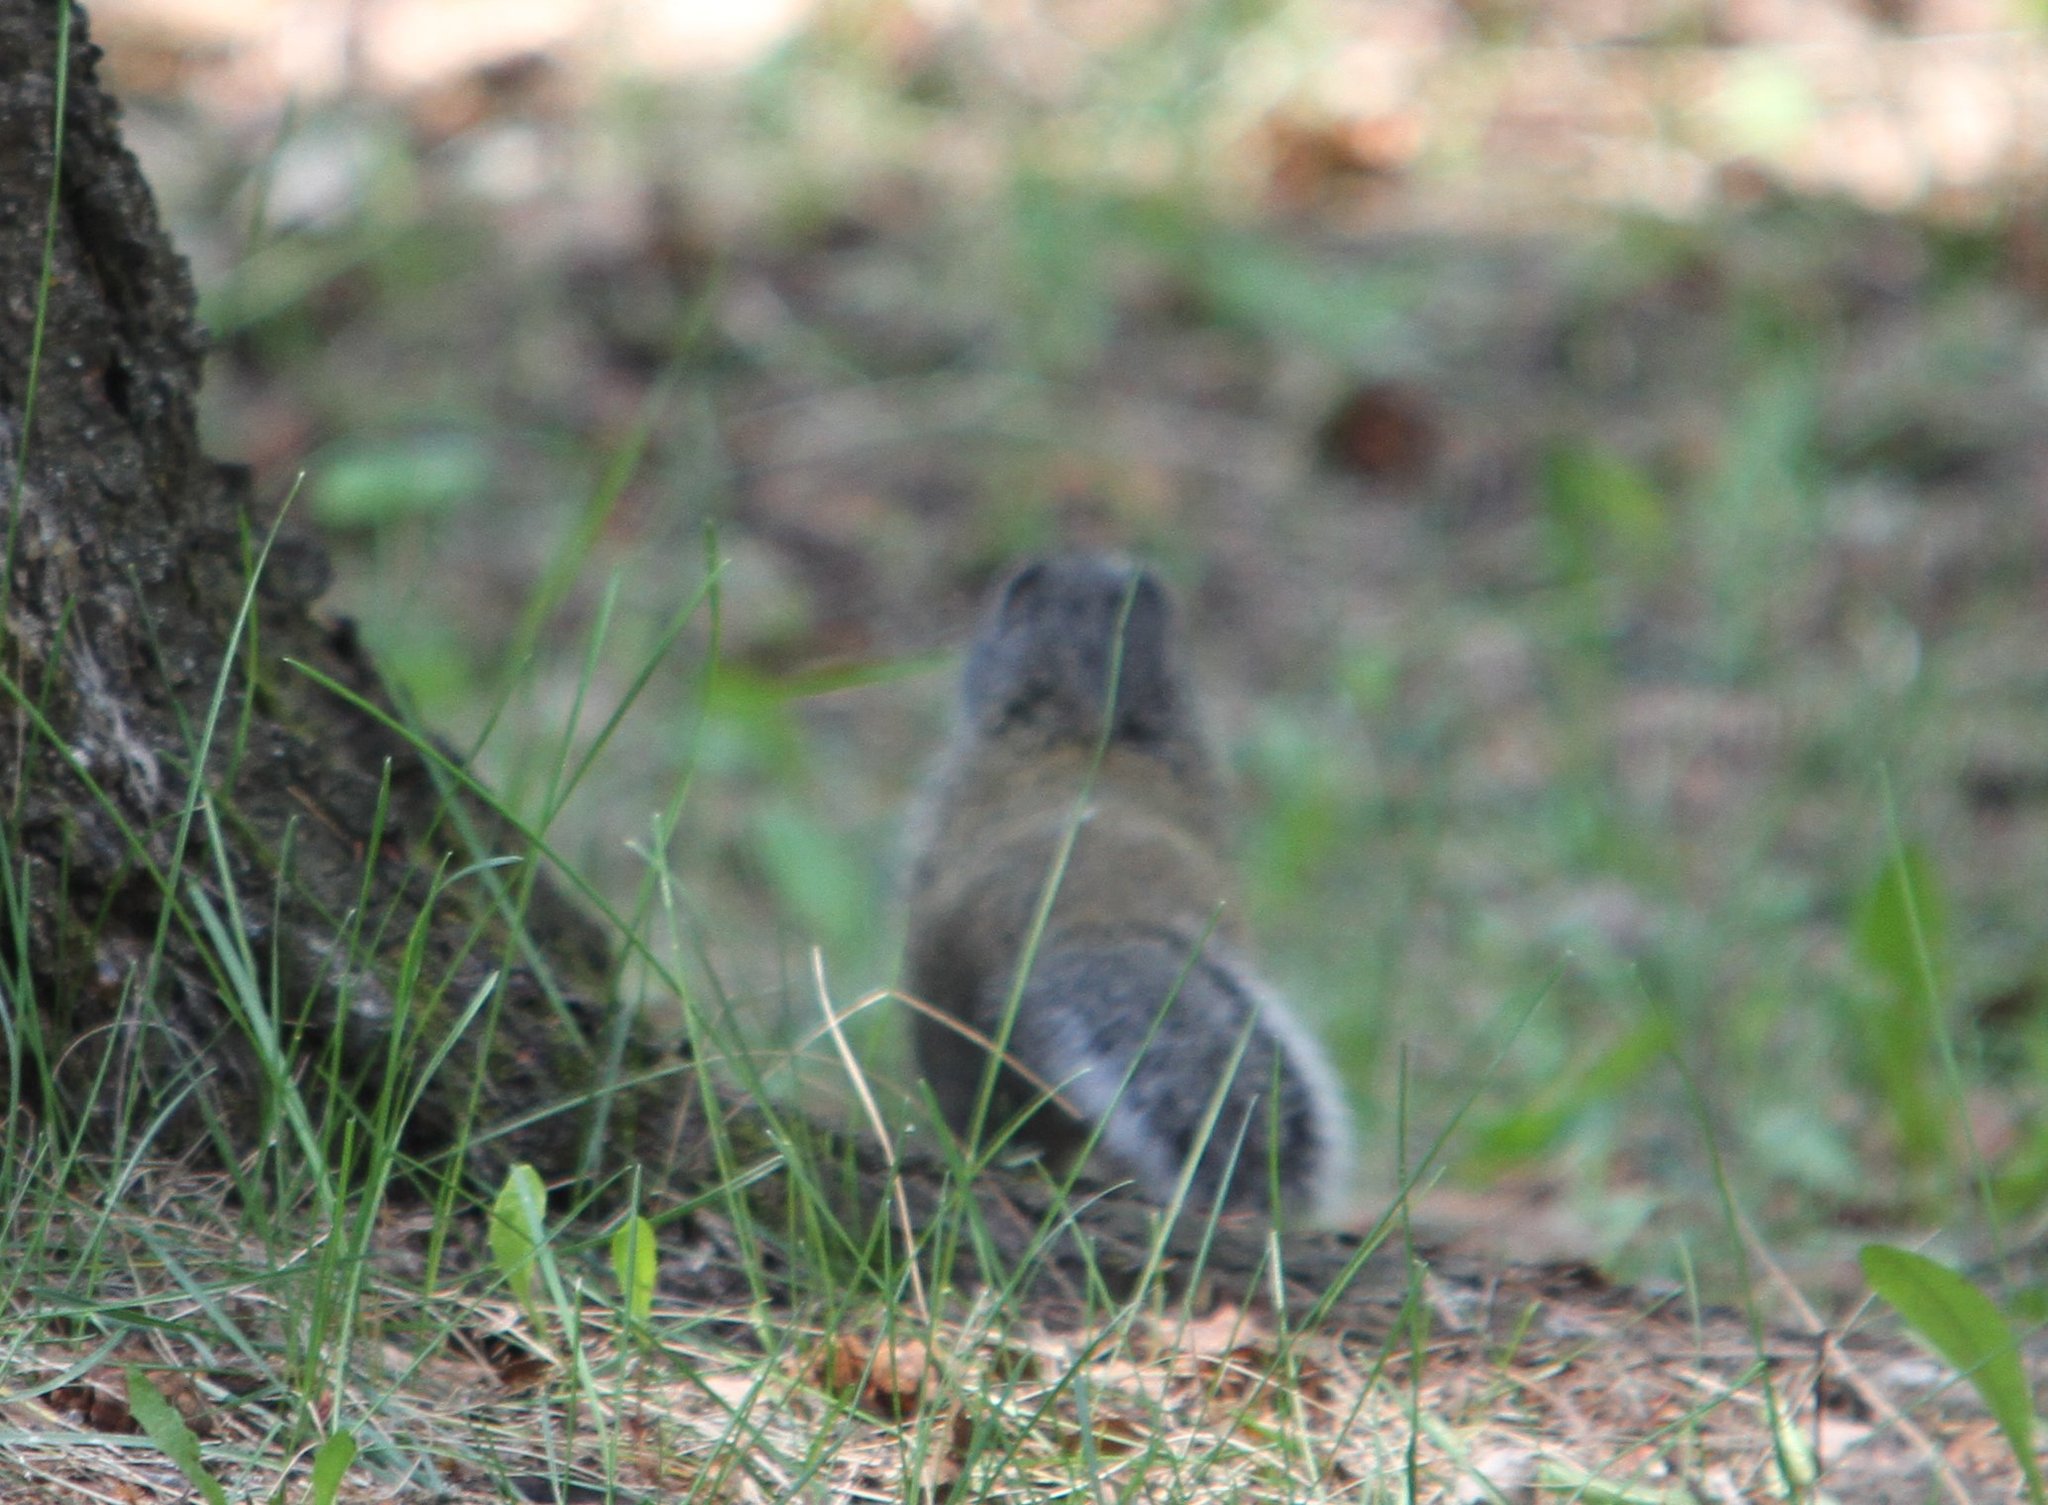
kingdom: Animalia
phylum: Chordata
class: Mammalia
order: Rodentia
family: Sciuridae
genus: Poliocitellus
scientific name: Poliocitellus franklinii
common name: Franklin's ground squirrel
